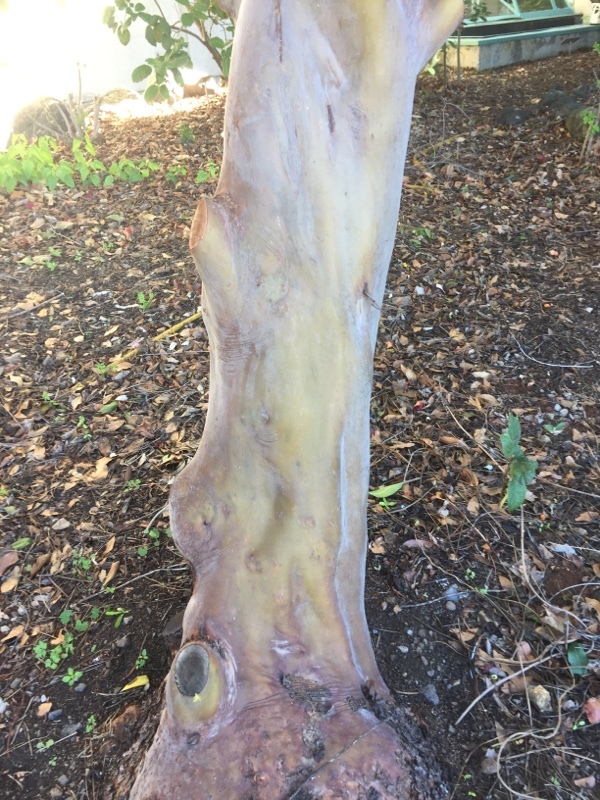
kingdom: Plantae
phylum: Tracheophyta
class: Magnoliopsida
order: Ericales
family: Ericaceae
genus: Arbutus
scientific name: Arbutus canariensis
